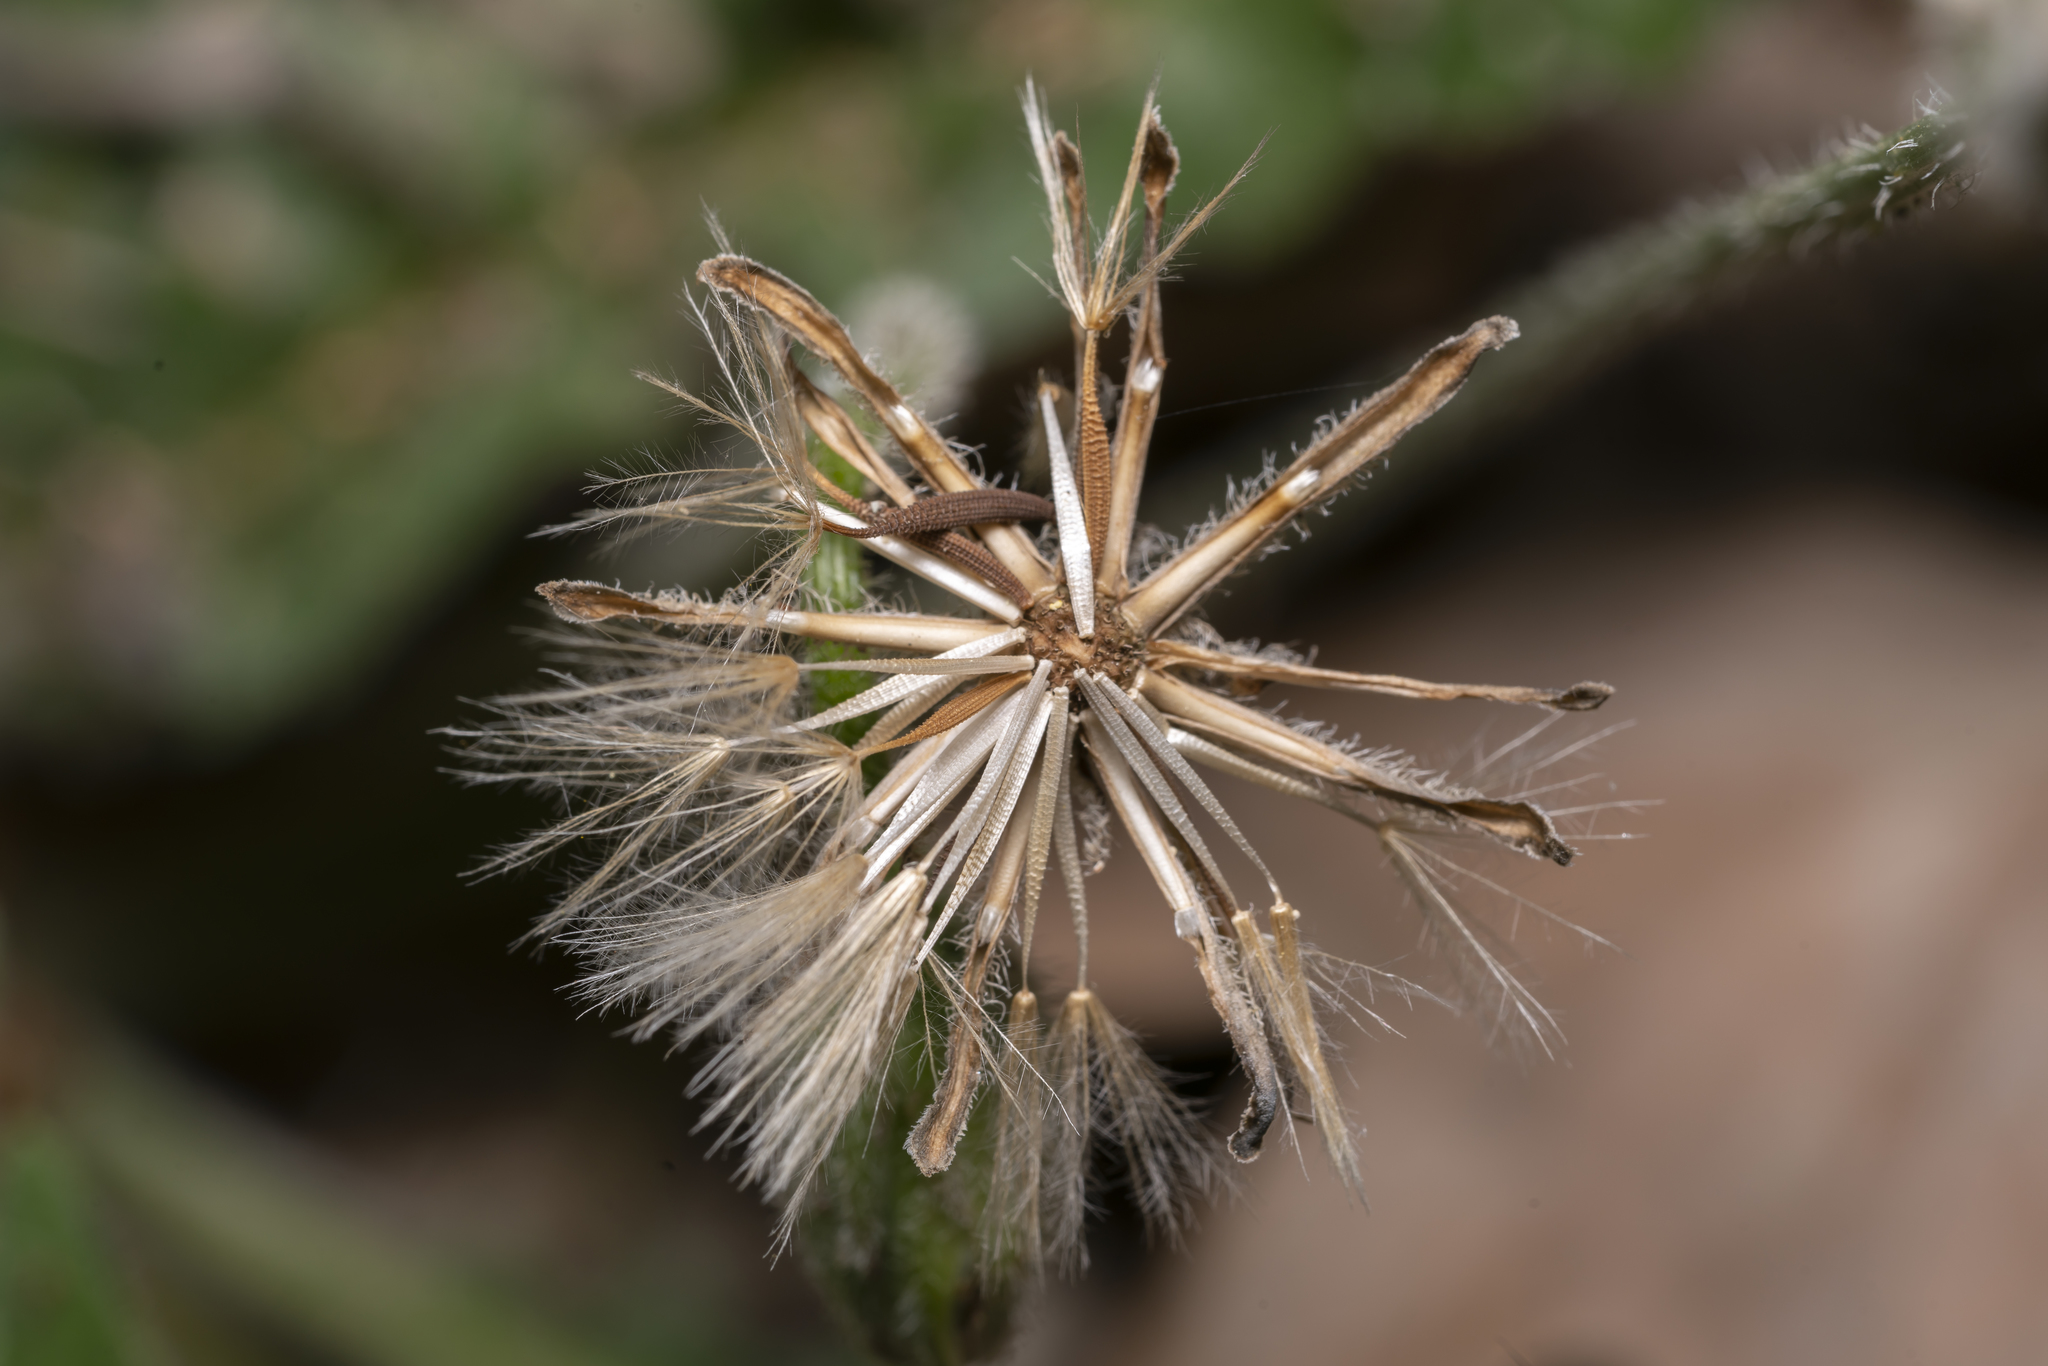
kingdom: Plantae
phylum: Tracheophyta
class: Magnoliopsida
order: Asterales
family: Asteraceae
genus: Leontodon
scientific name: Leontodon tuberosus
